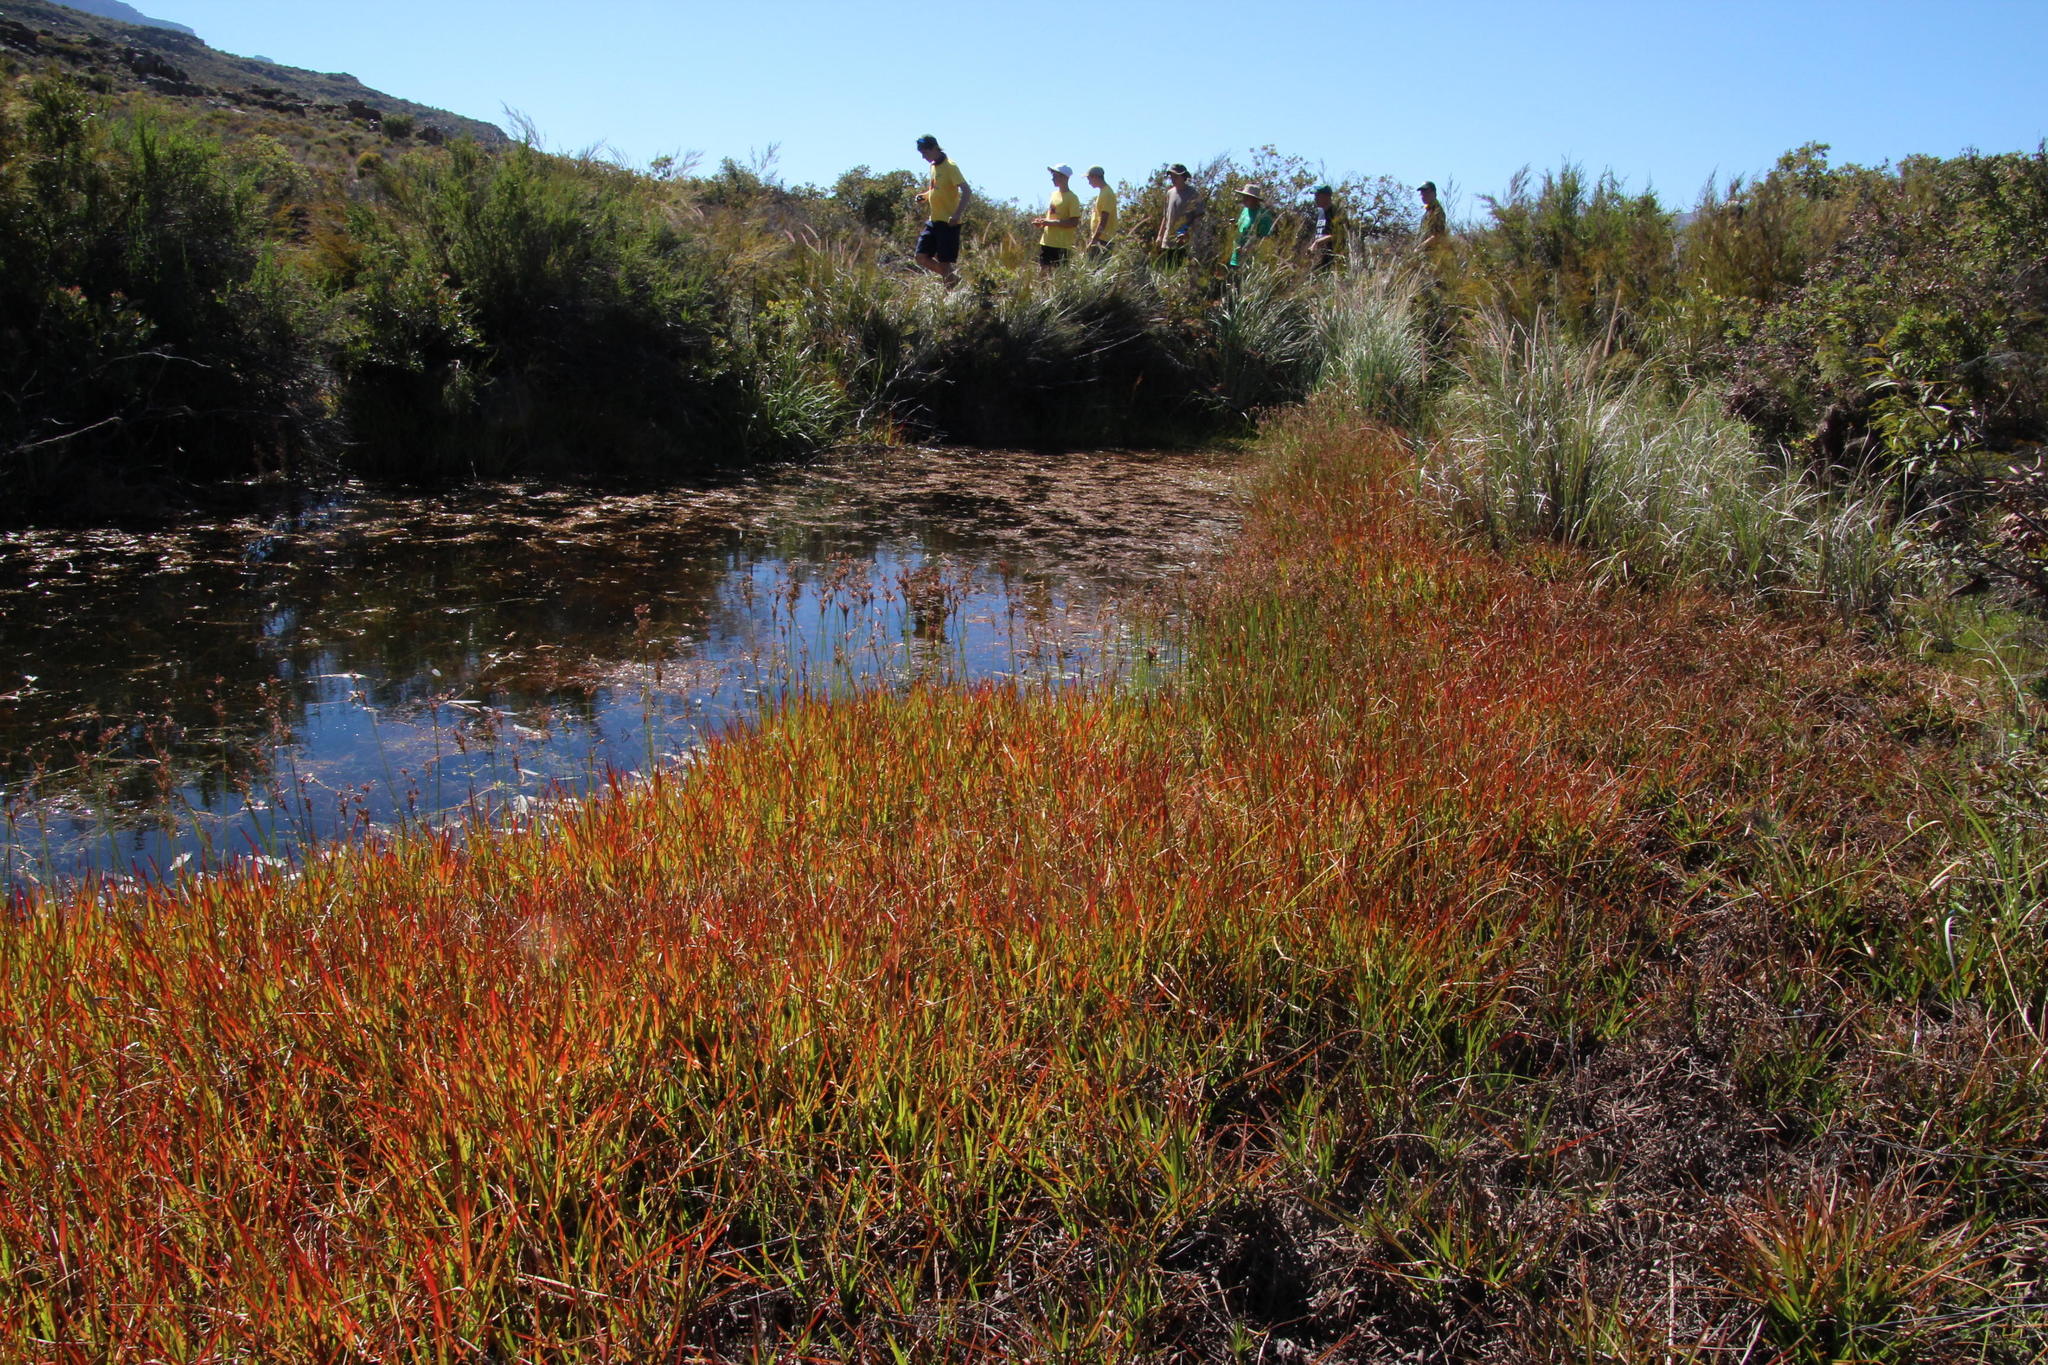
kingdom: Plantae
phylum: Tracheophyta
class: Liliopsida
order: Poales
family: Juncaceae
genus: Juncus
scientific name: Juncus lomatophyllus
